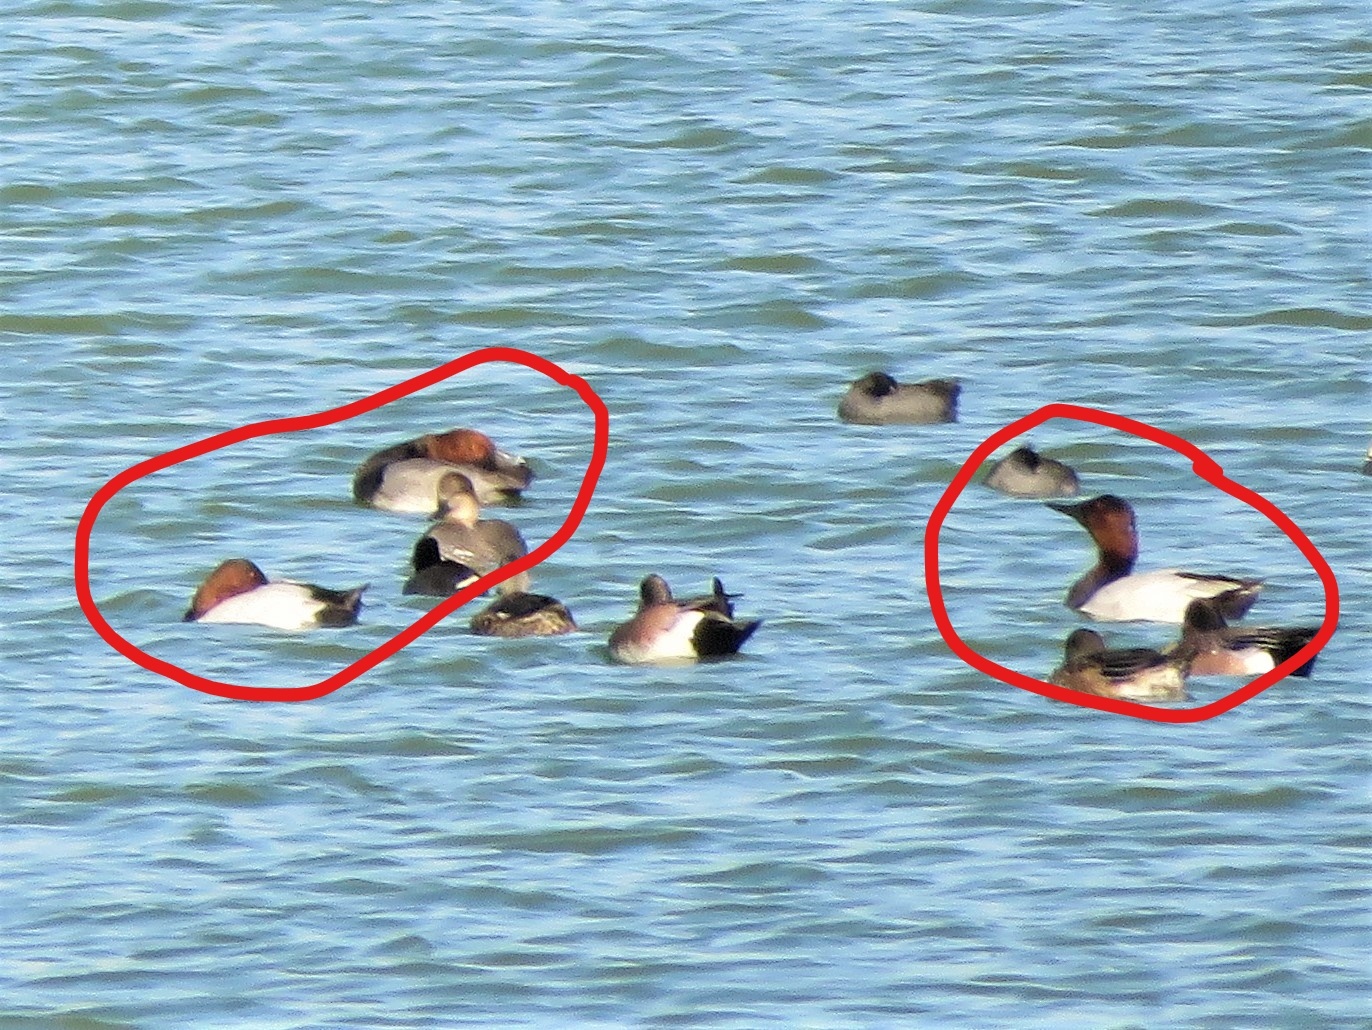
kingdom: Animalia
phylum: Chordata
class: Aves
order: Anseriformes
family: Anatidae
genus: Aythya
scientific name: Aythya valisineria
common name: Canvasback
